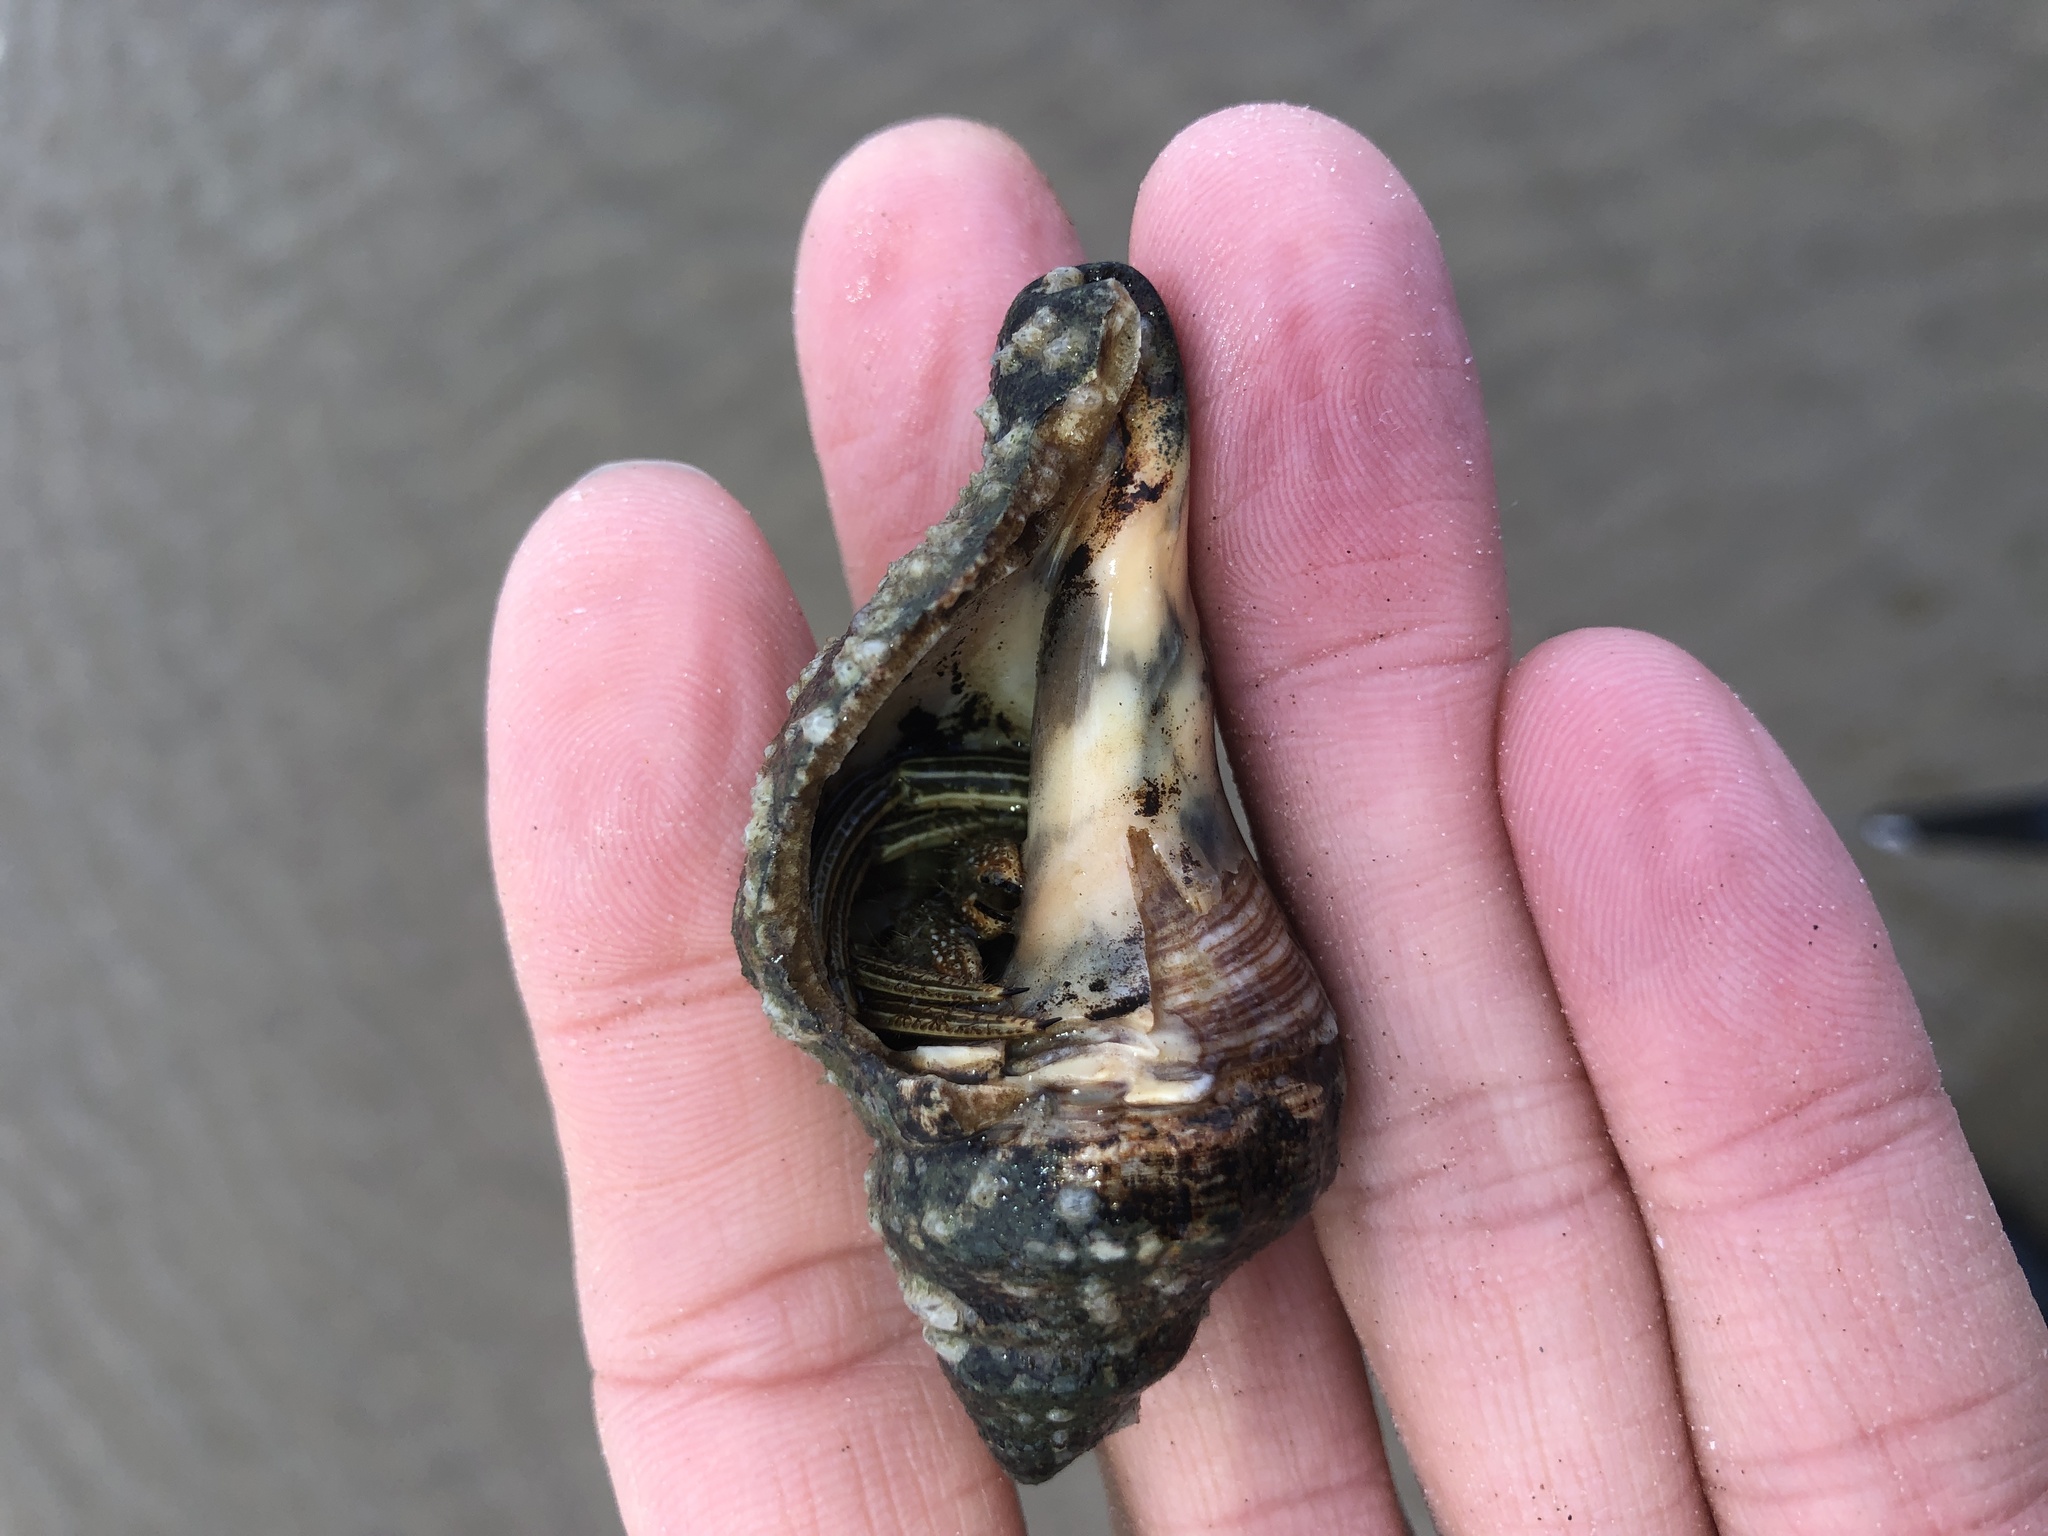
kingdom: Animalia
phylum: Arthropoda
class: Malacostraca
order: Decapoda
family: Diogenidae
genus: Clibanarius
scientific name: Clibanarius vittatus
